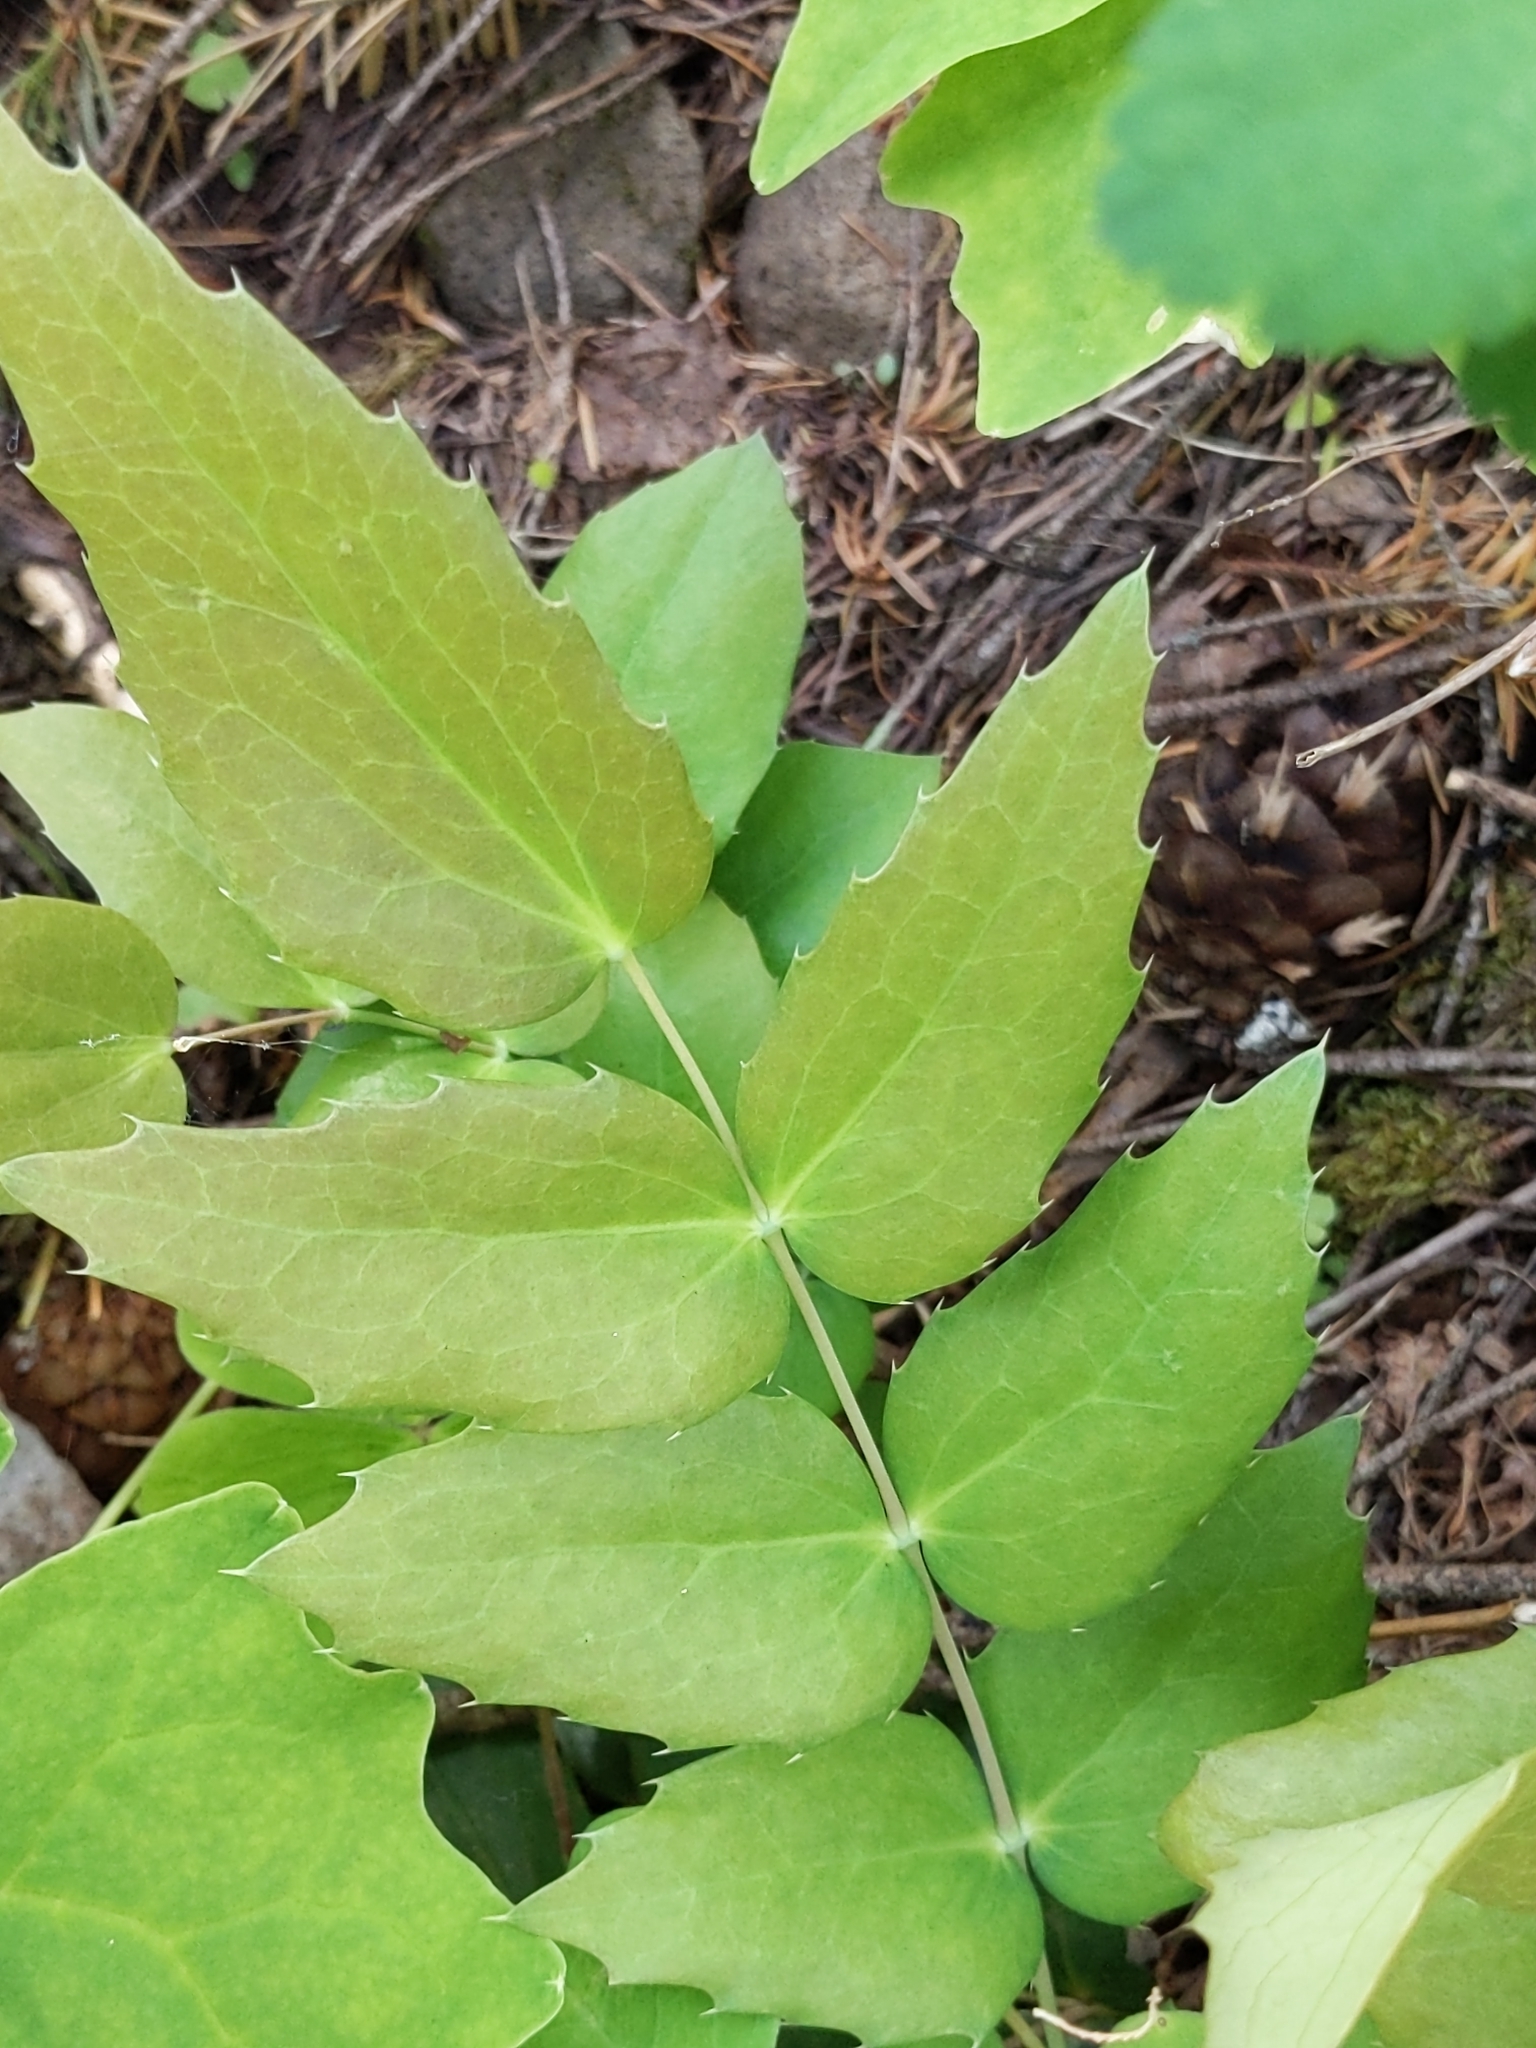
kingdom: Plantae
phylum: Tracheophyta
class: Magnoliopsida
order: Ranunculales
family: Berberidaceae
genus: Mahonia
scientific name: Mahonia nervosa
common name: Cascade oregon-grape
